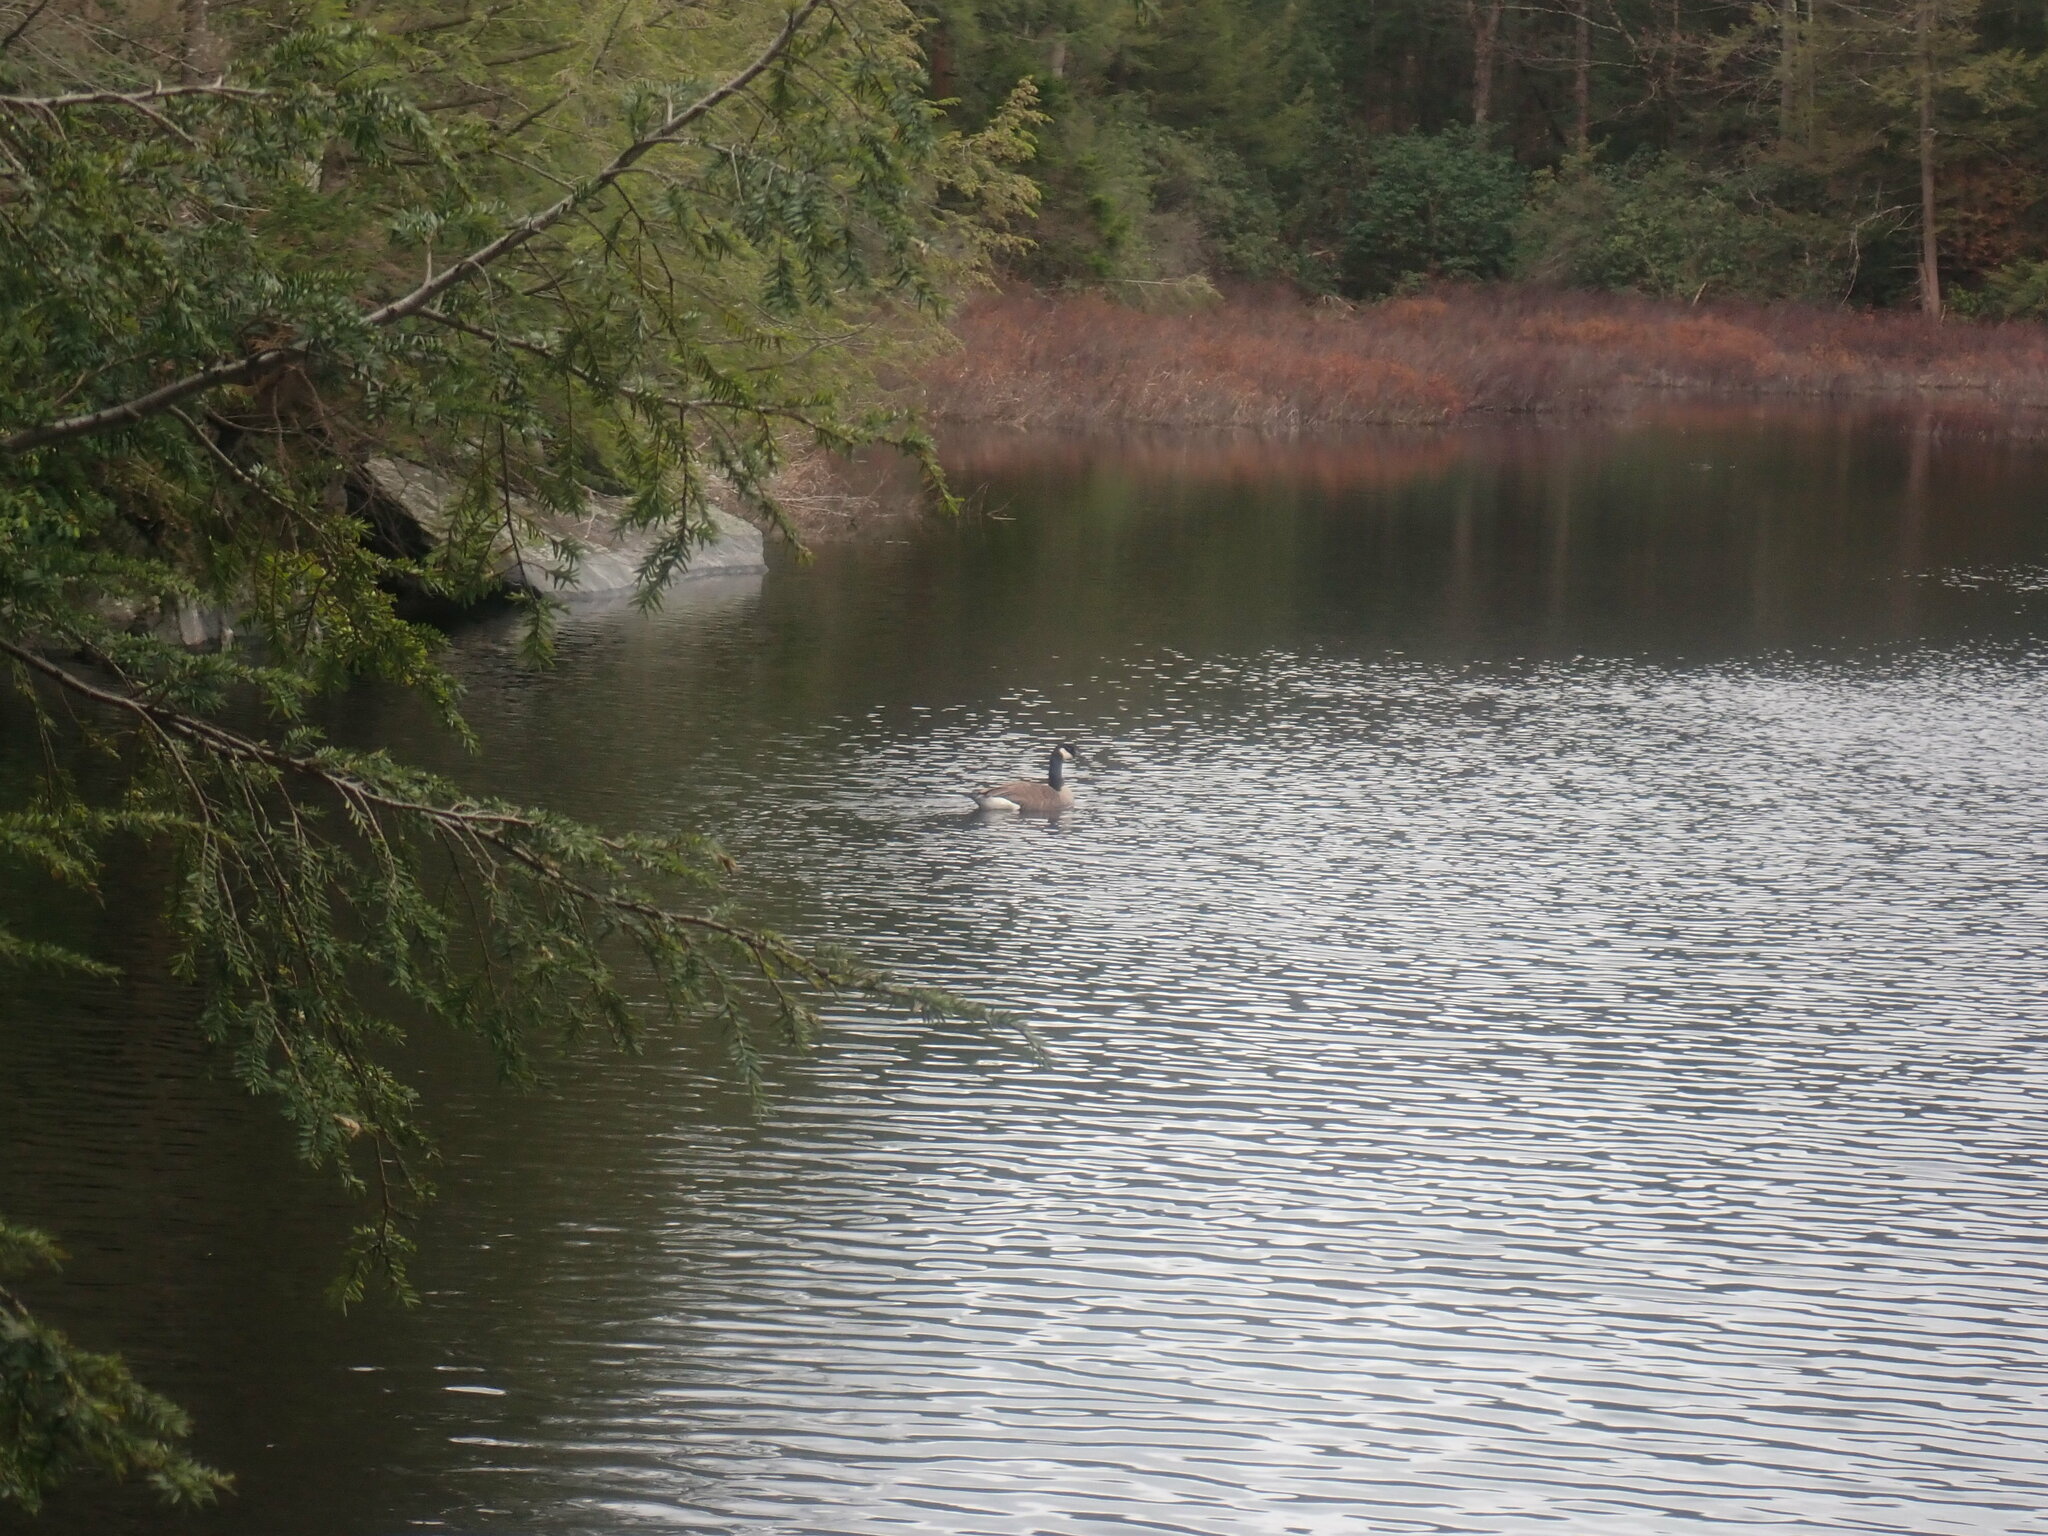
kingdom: Animalia
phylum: Chordata
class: Aves
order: Anseriformes
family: Anatidae
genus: Branta
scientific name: Branta canadensis
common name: Canada goose
